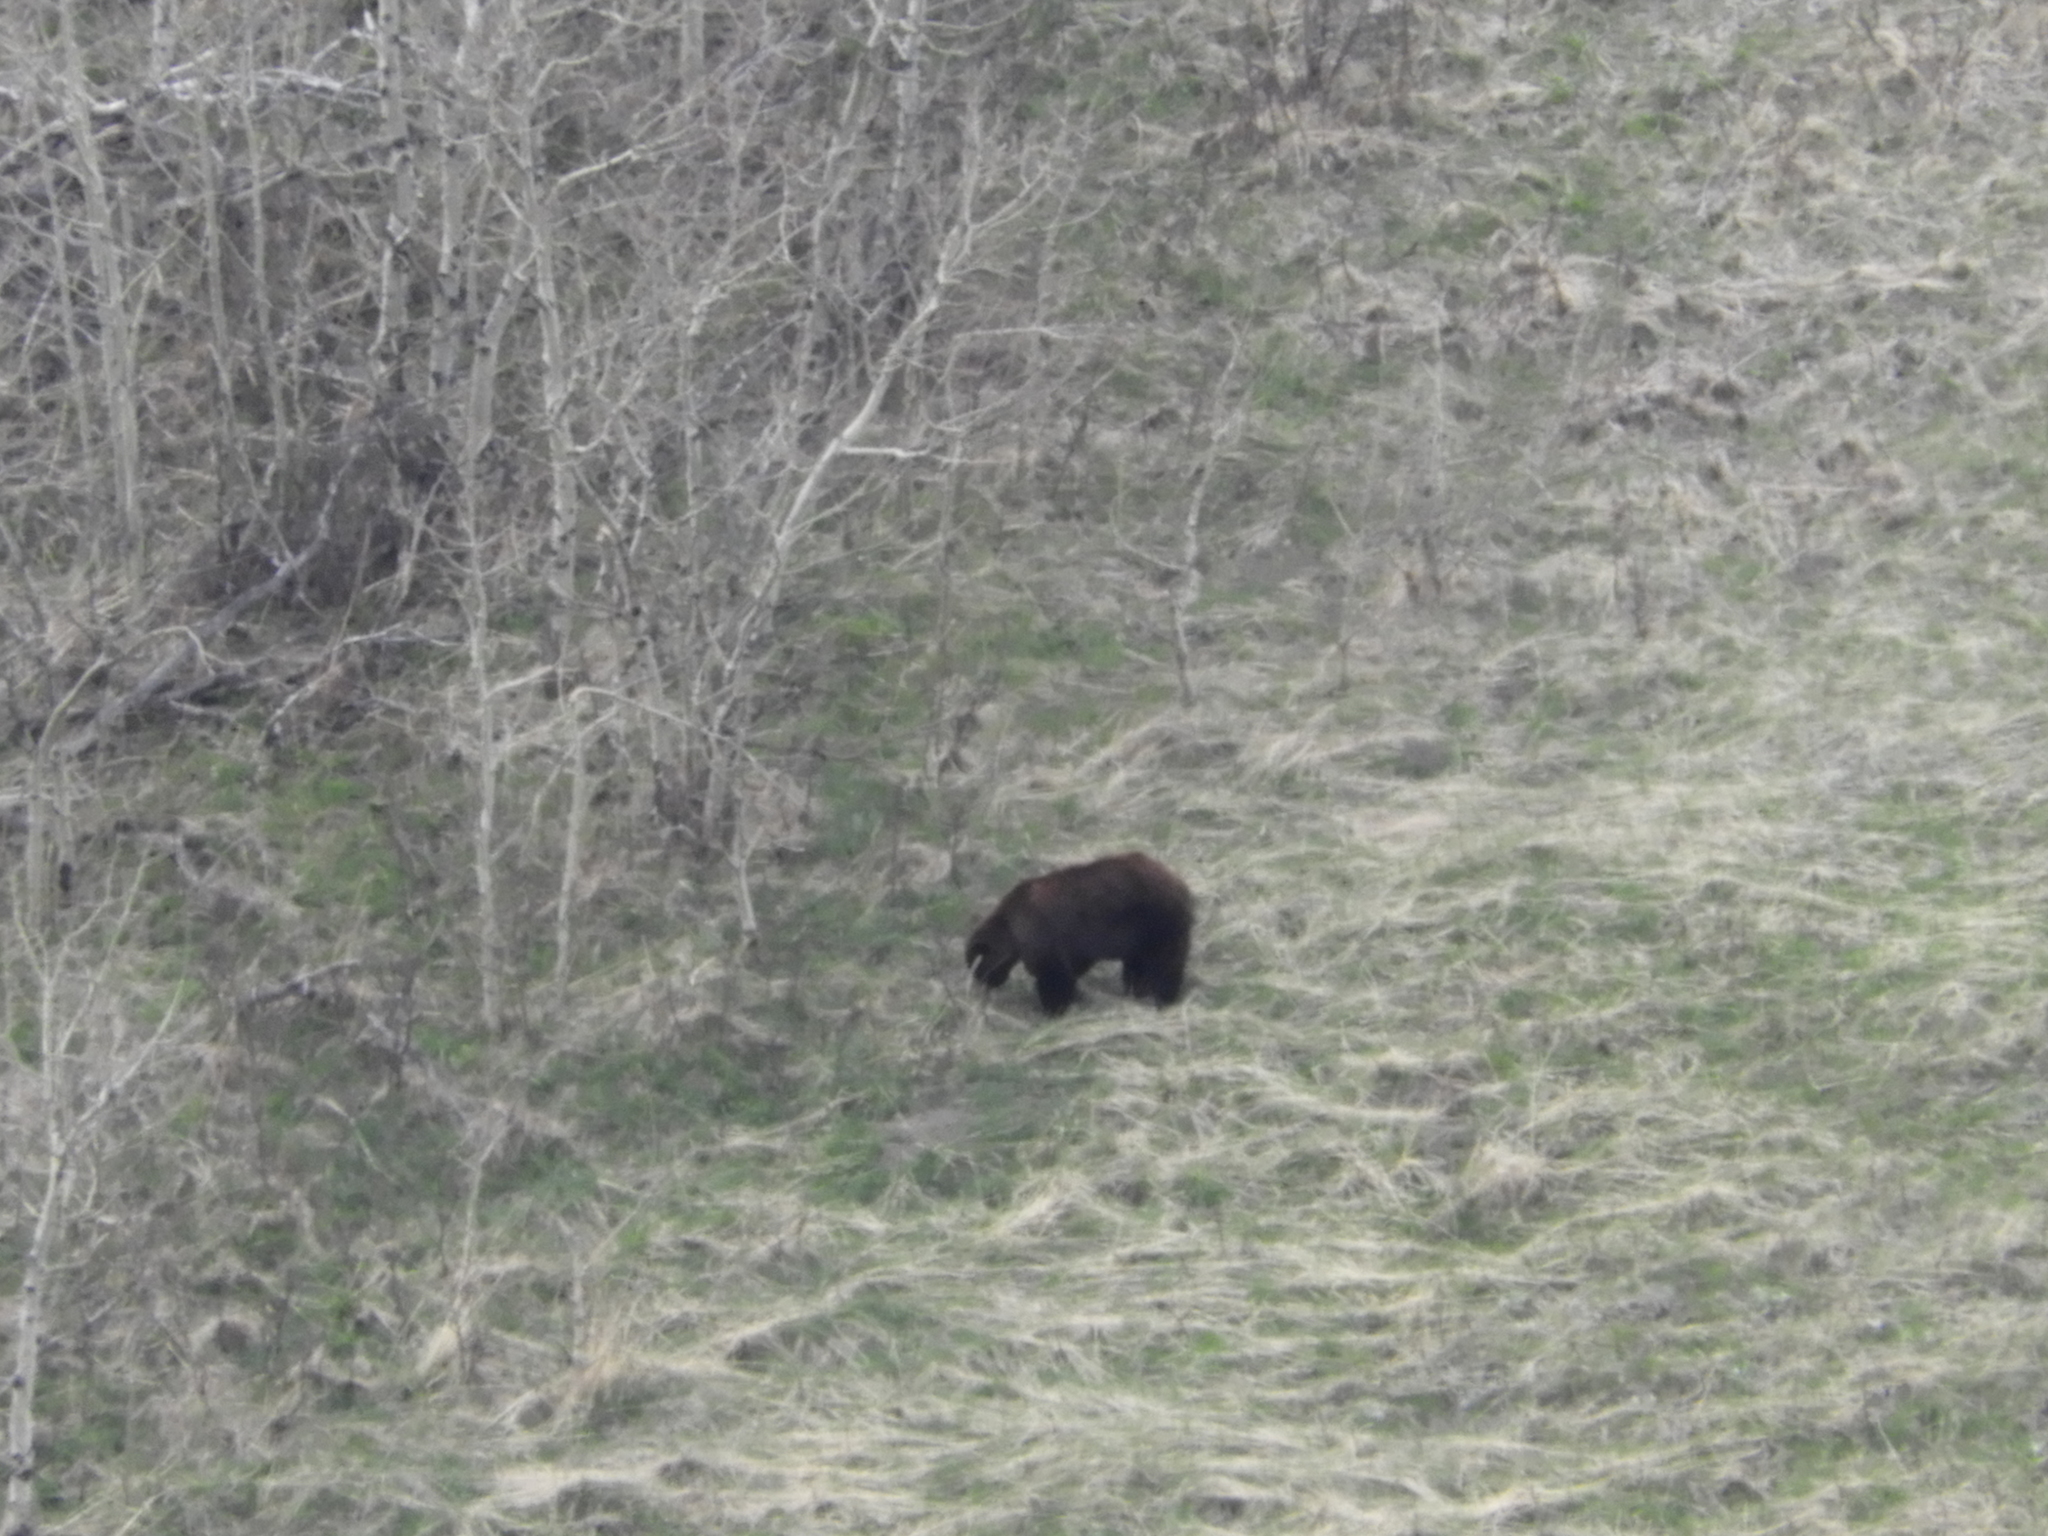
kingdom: Animalia
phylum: Chordata
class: Mammalia
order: Carnivora
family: Ursidae
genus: Ursus
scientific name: Ursus arctos
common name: Brown bear
